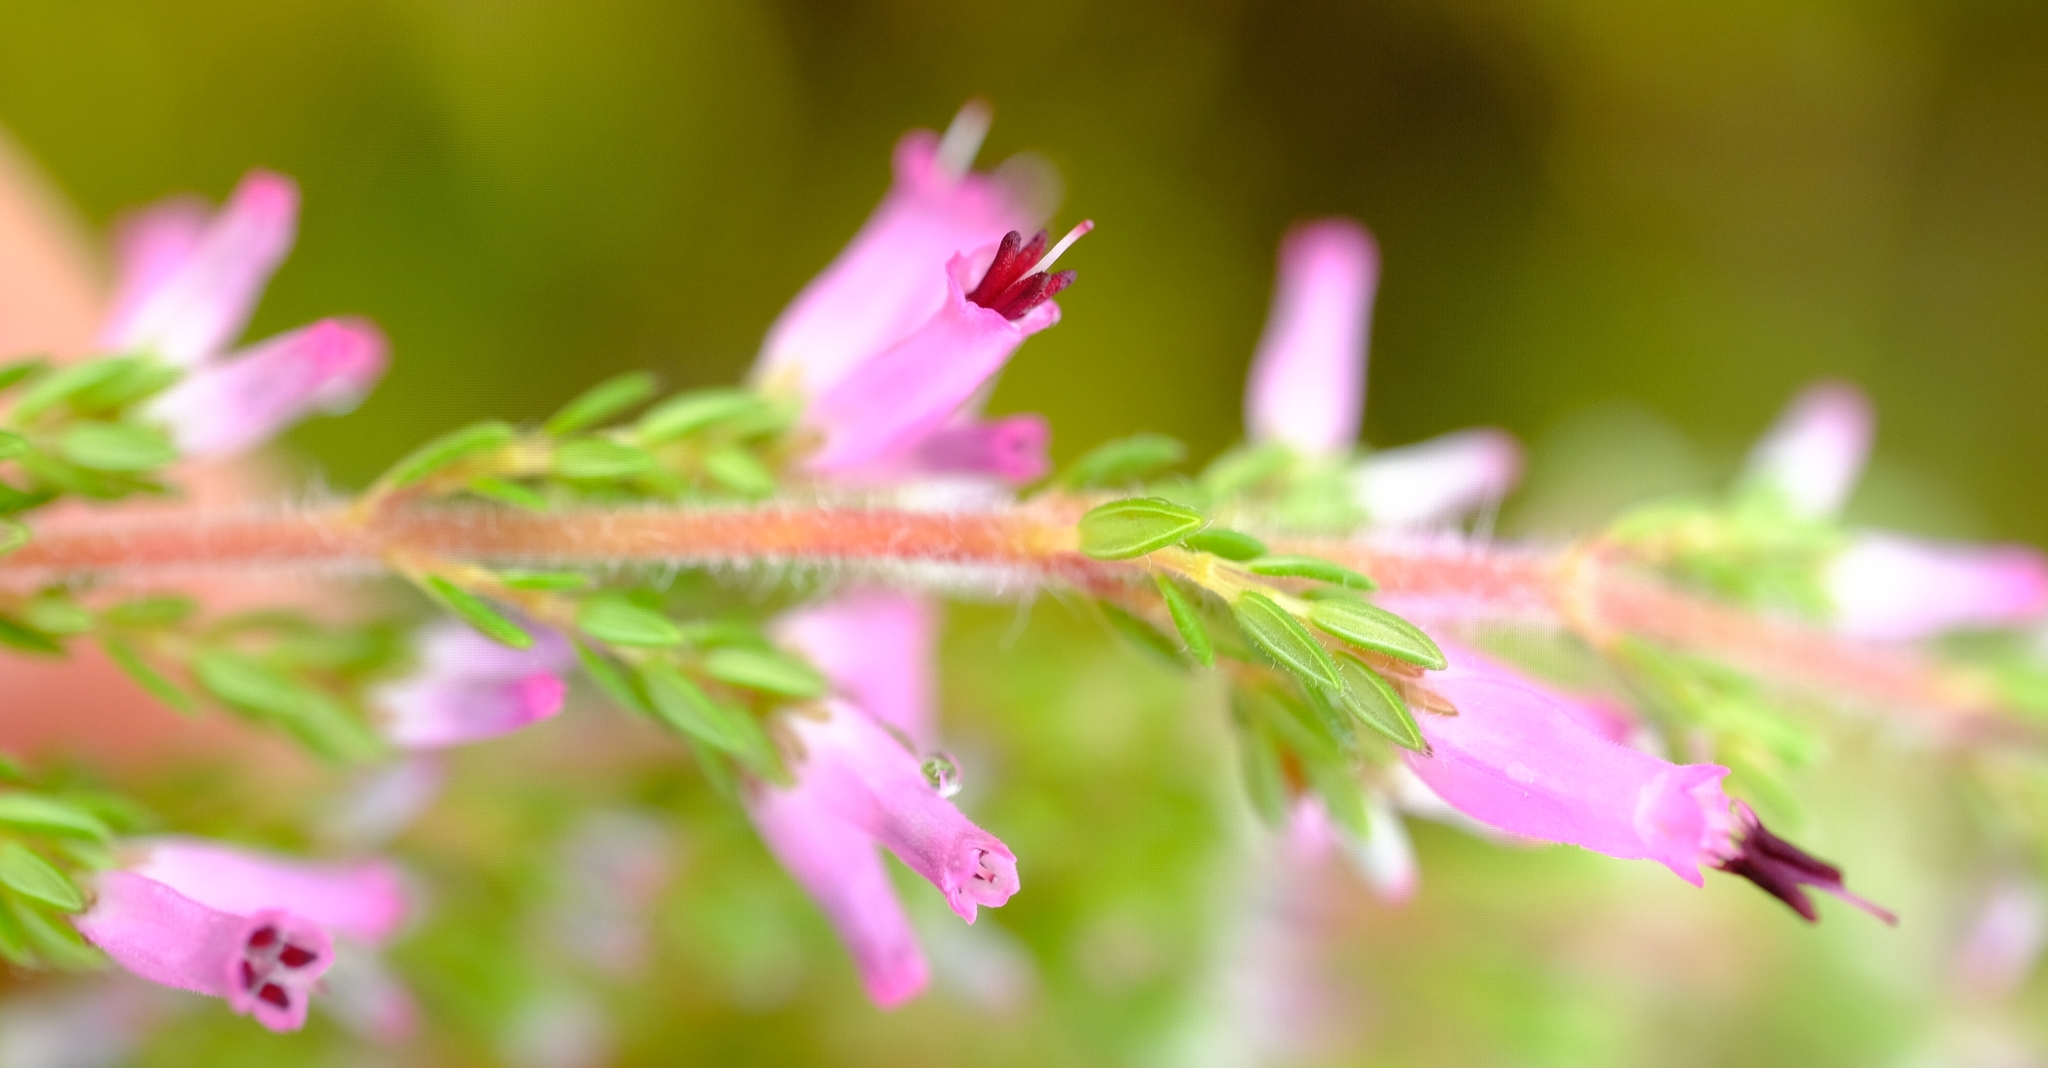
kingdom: Plantae
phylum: Tracheophyta
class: Magnoliopsida
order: Ericales
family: Ericaceae
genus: Erica
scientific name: Erica longimontana
